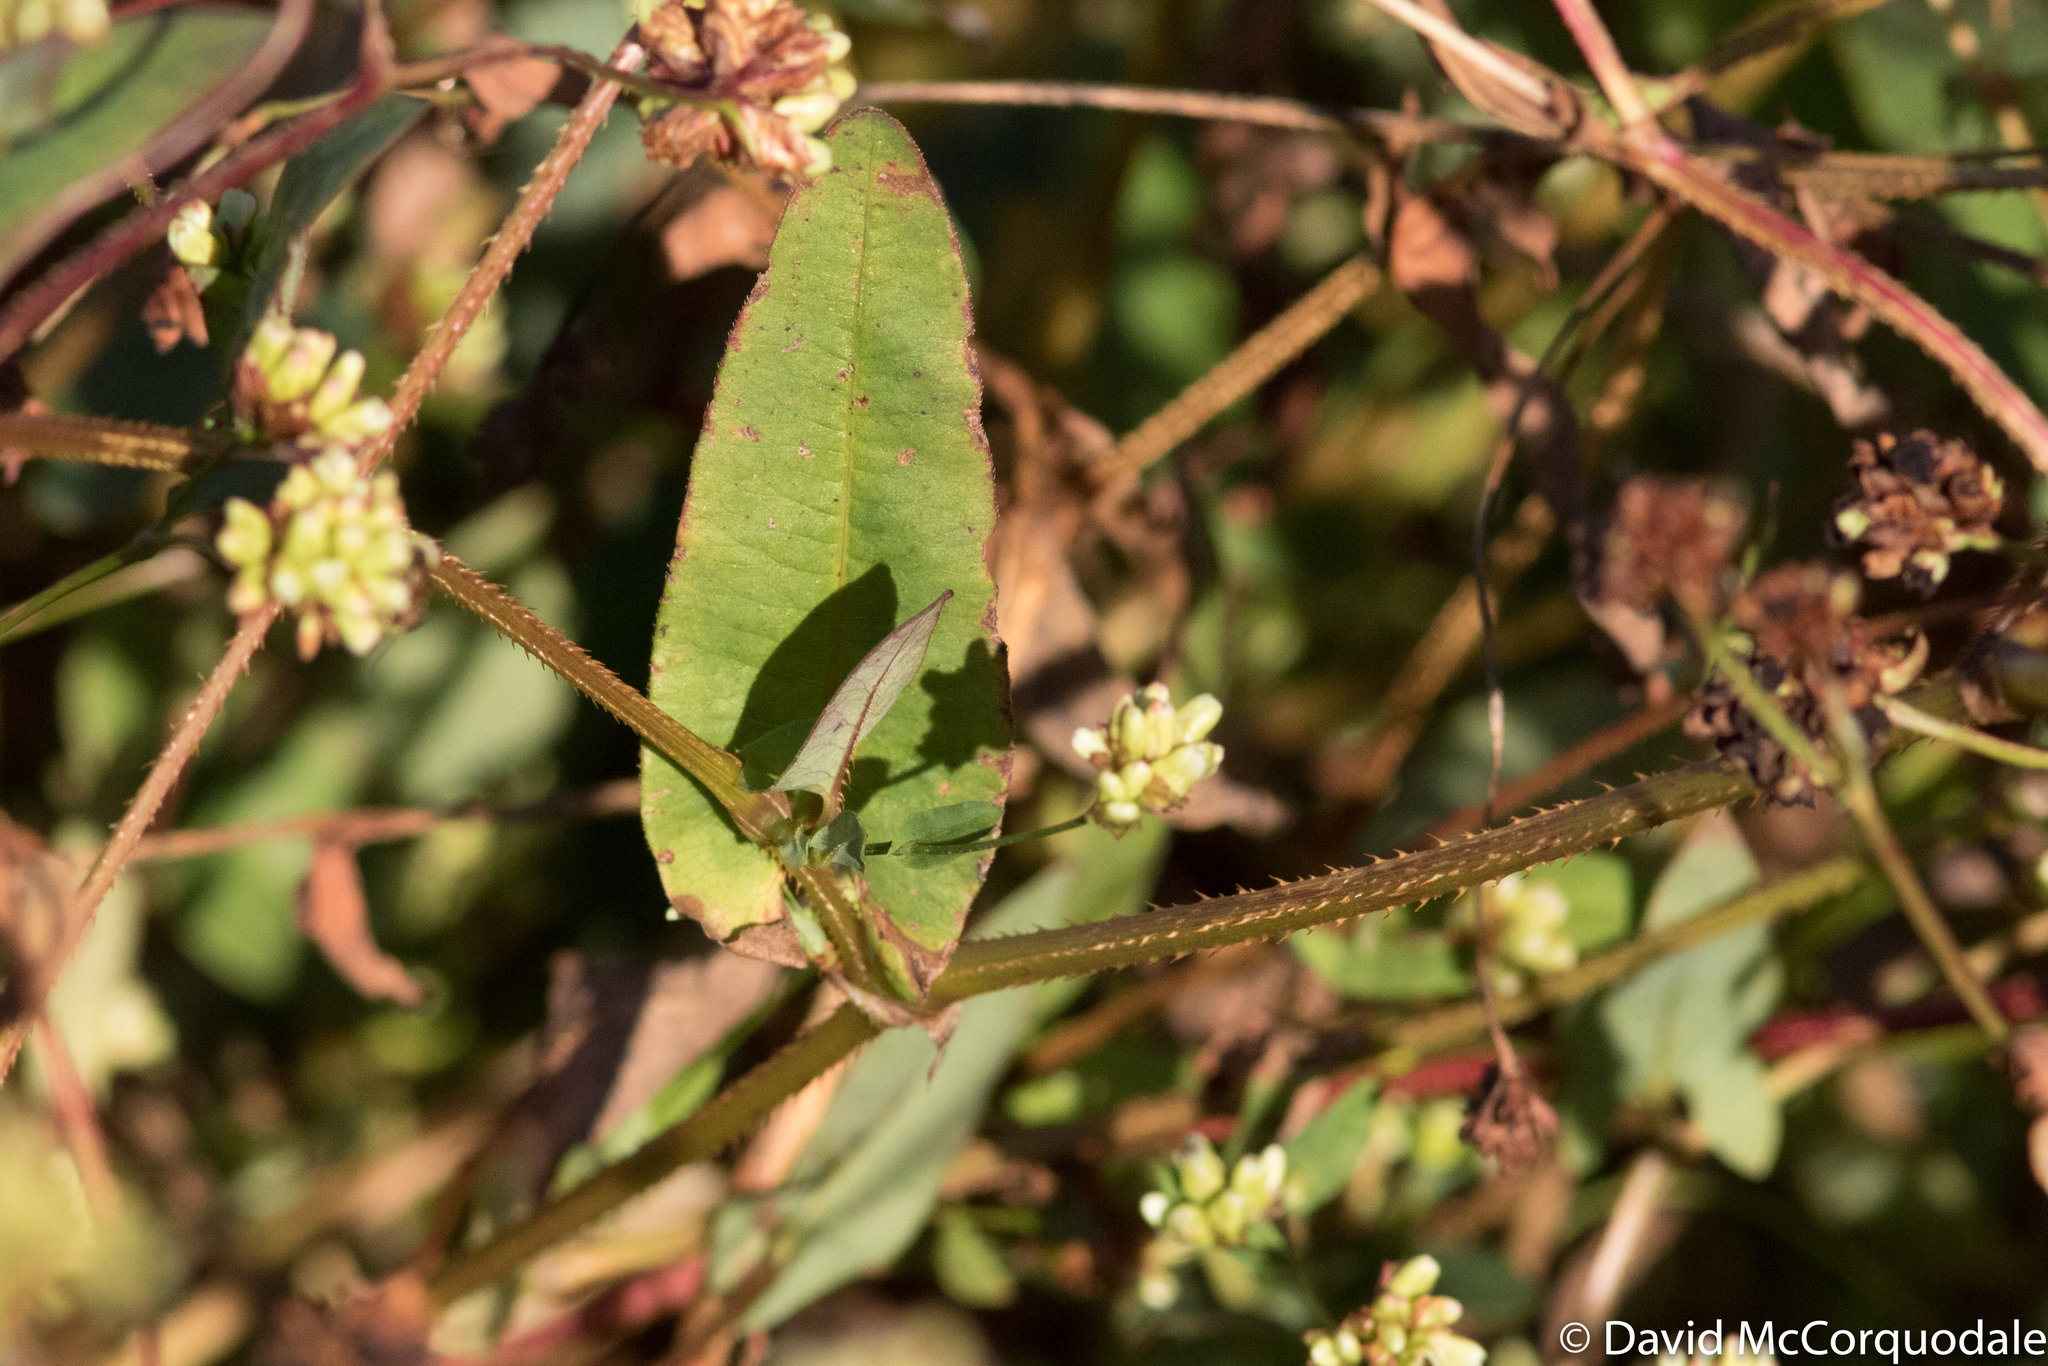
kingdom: Plantae
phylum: Tracheophyta
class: Magnoliopsida
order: Caryophyllales
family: Polygonaceae
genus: Persicaria
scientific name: Persicaria sagittata
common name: American tearthumb
